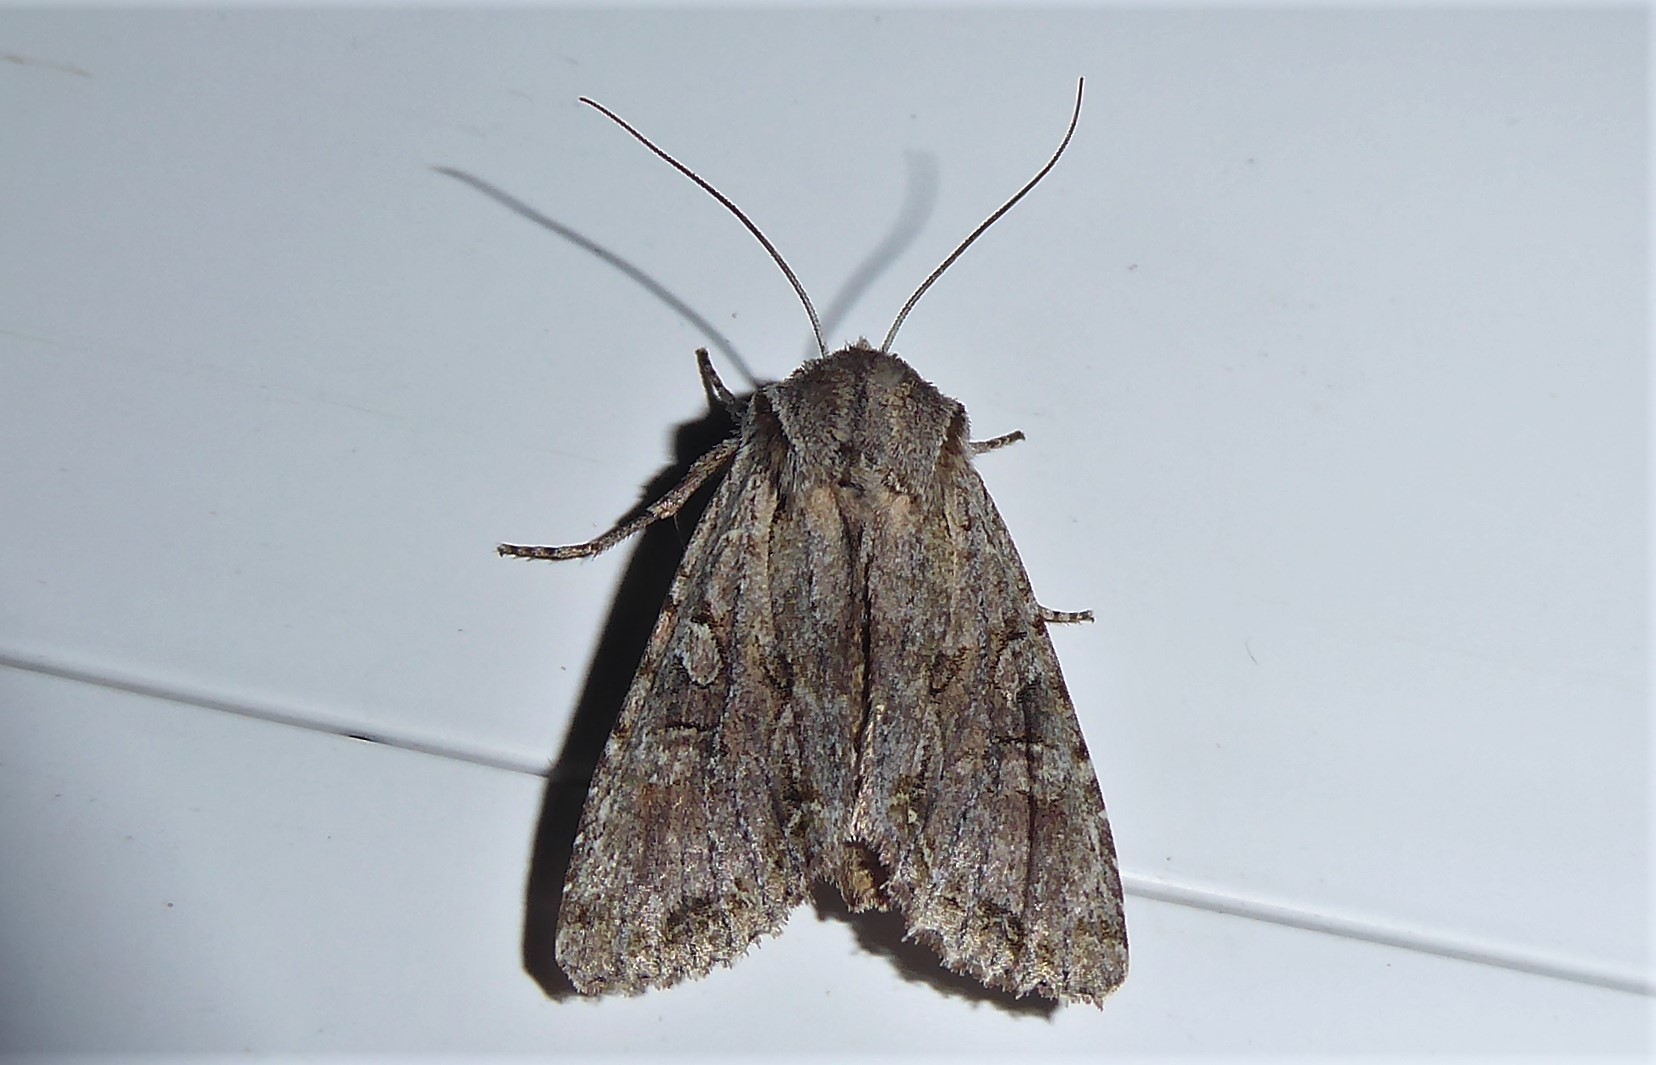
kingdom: Animalia
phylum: Arthropoda
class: Insecta
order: Lepidoptera
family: Noctuidae
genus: Ichneutica
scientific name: Ichneutica mutans
